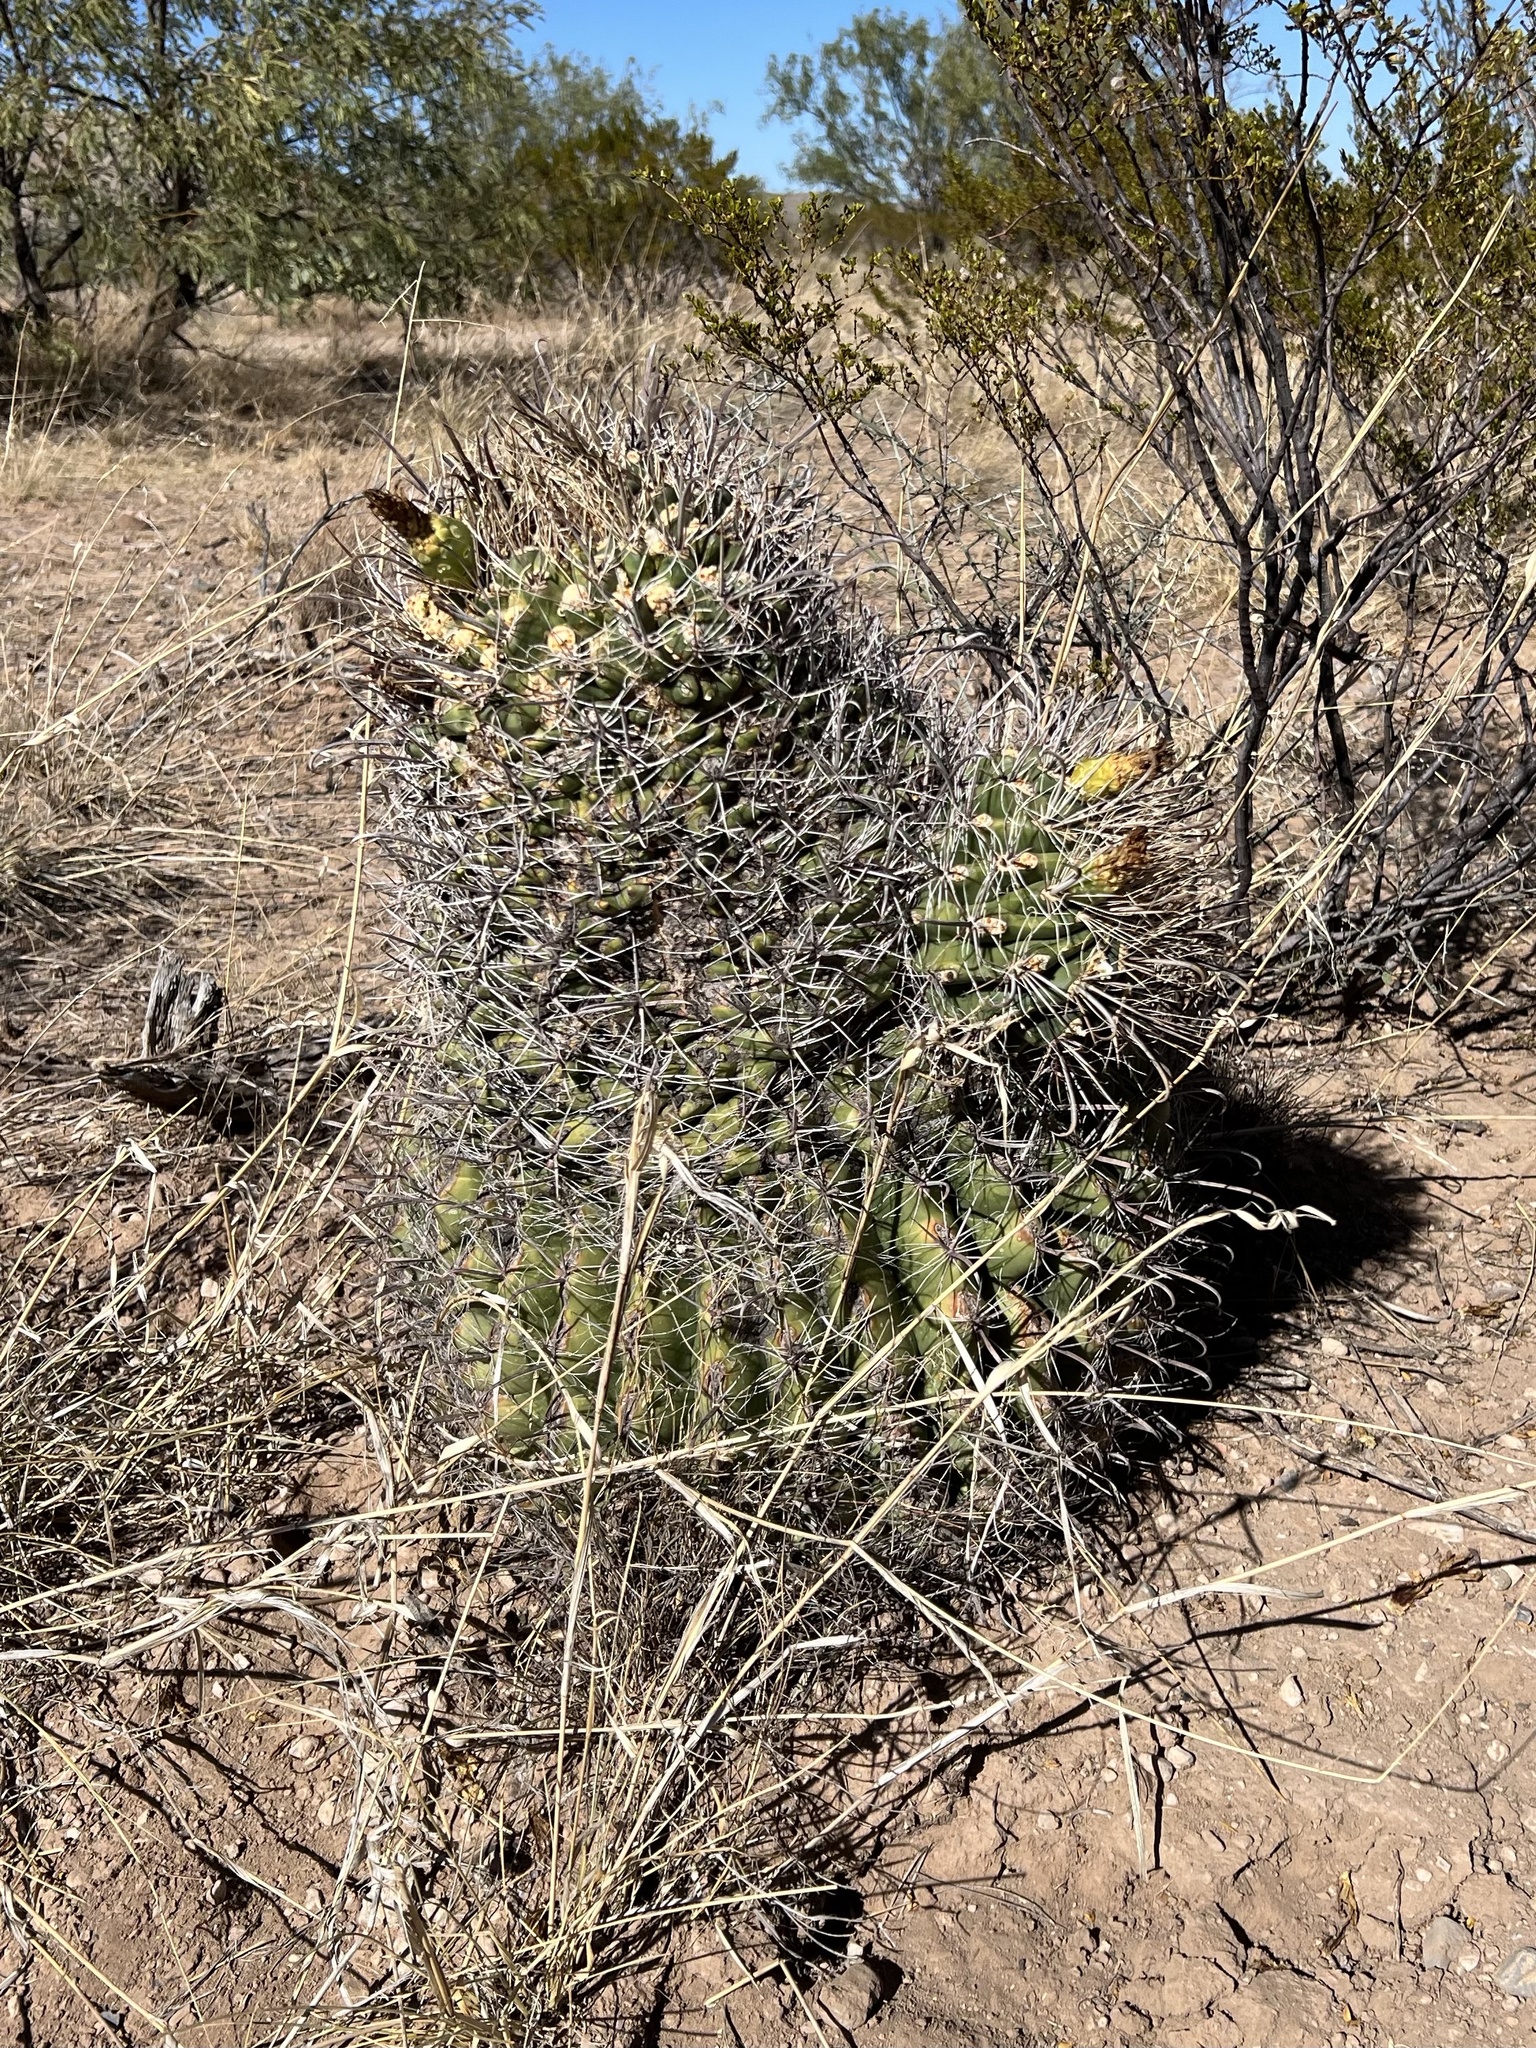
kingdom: Plantae
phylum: Tracheophyta
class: Magnoliopsida
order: Caryophyllales
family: Cactaceae
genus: Ferocactus
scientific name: Ferocactus wislizeni
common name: Candy barrel cactus
